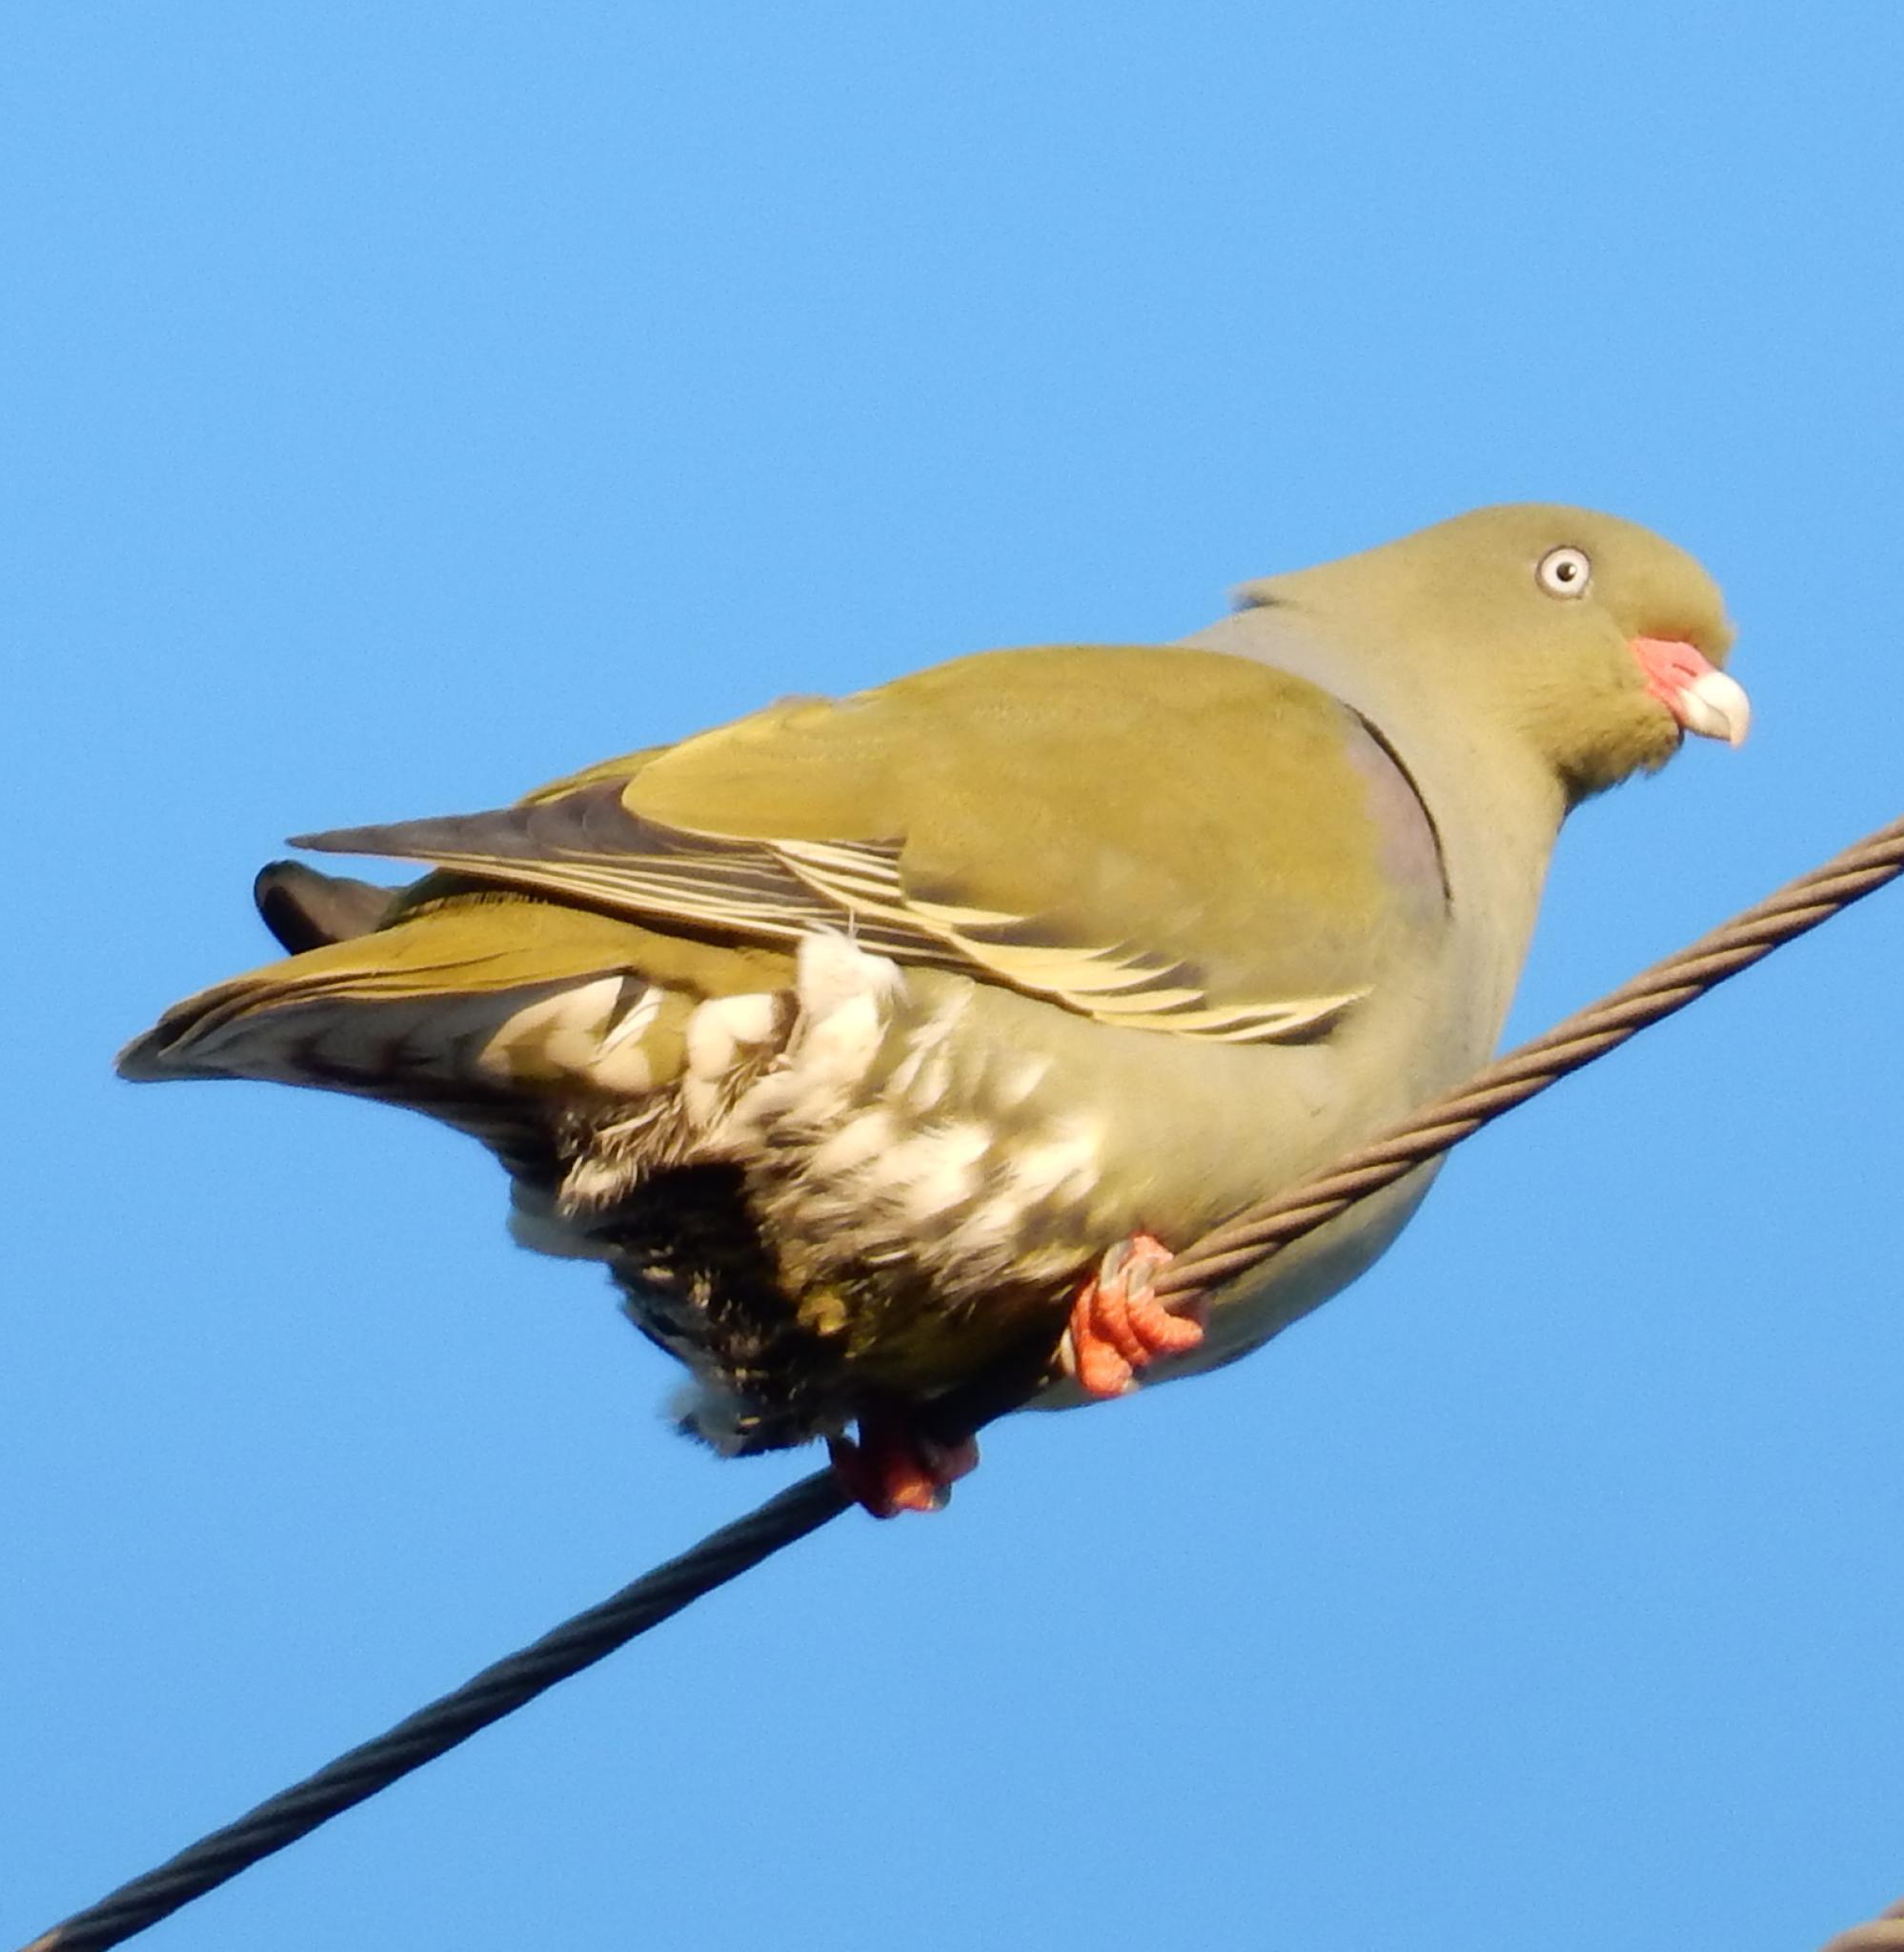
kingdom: Animalia
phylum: Chordata
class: Aves
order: Columbiformes
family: Columbidae
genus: Treron
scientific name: Treron calvus
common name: African green pigeon
